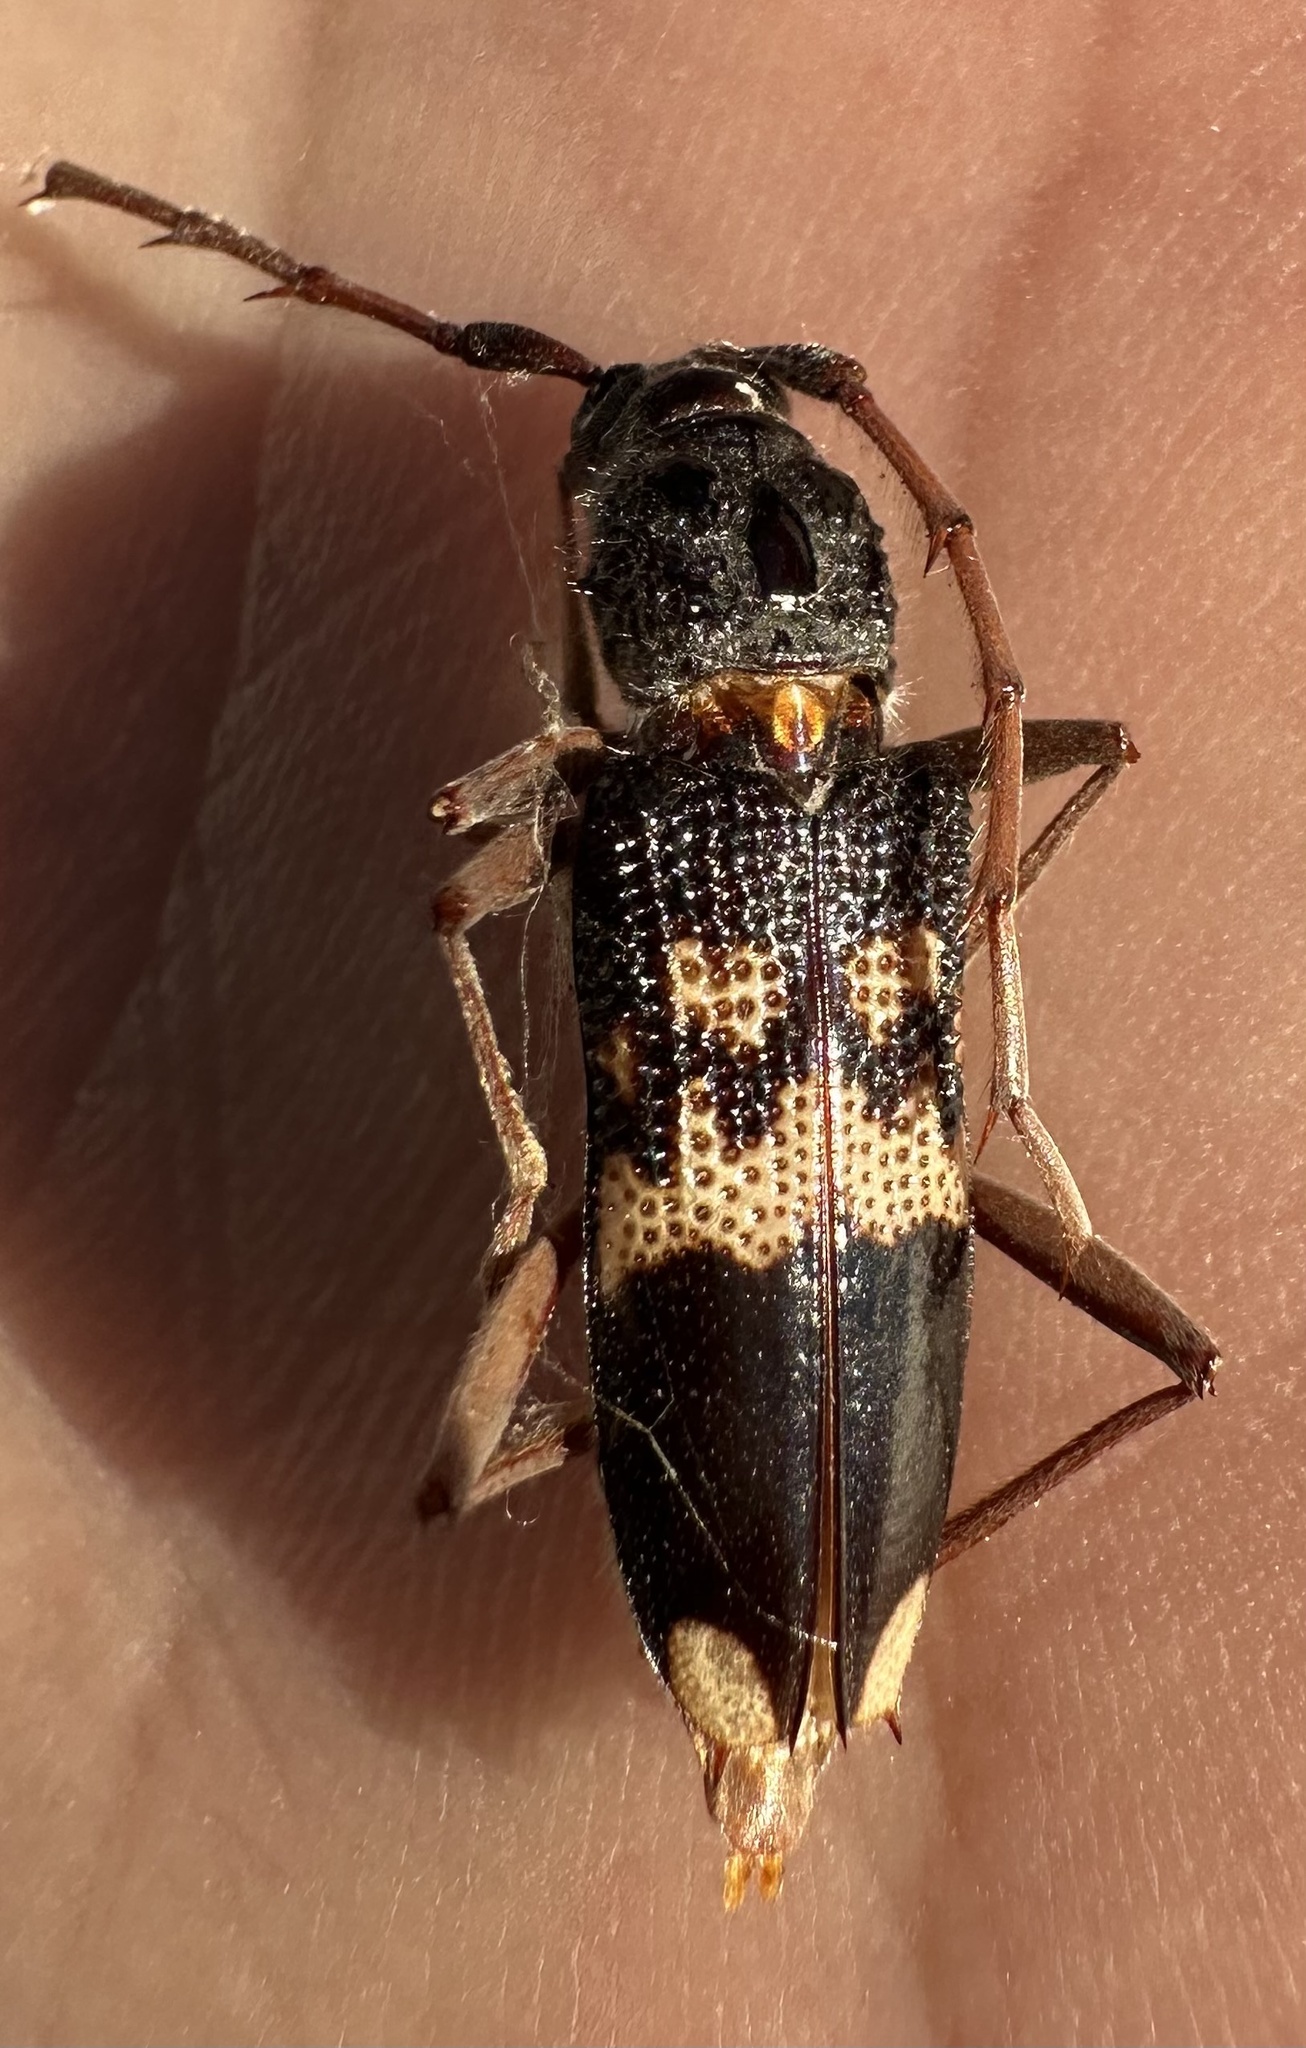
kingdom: Animalia
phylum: Arthropoda
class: Insecta
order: Coleoptera
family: Cerambycidae
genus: Phoracantha
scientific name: Phoracantha semipunctata
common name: Eucalyptus longhorn borer
